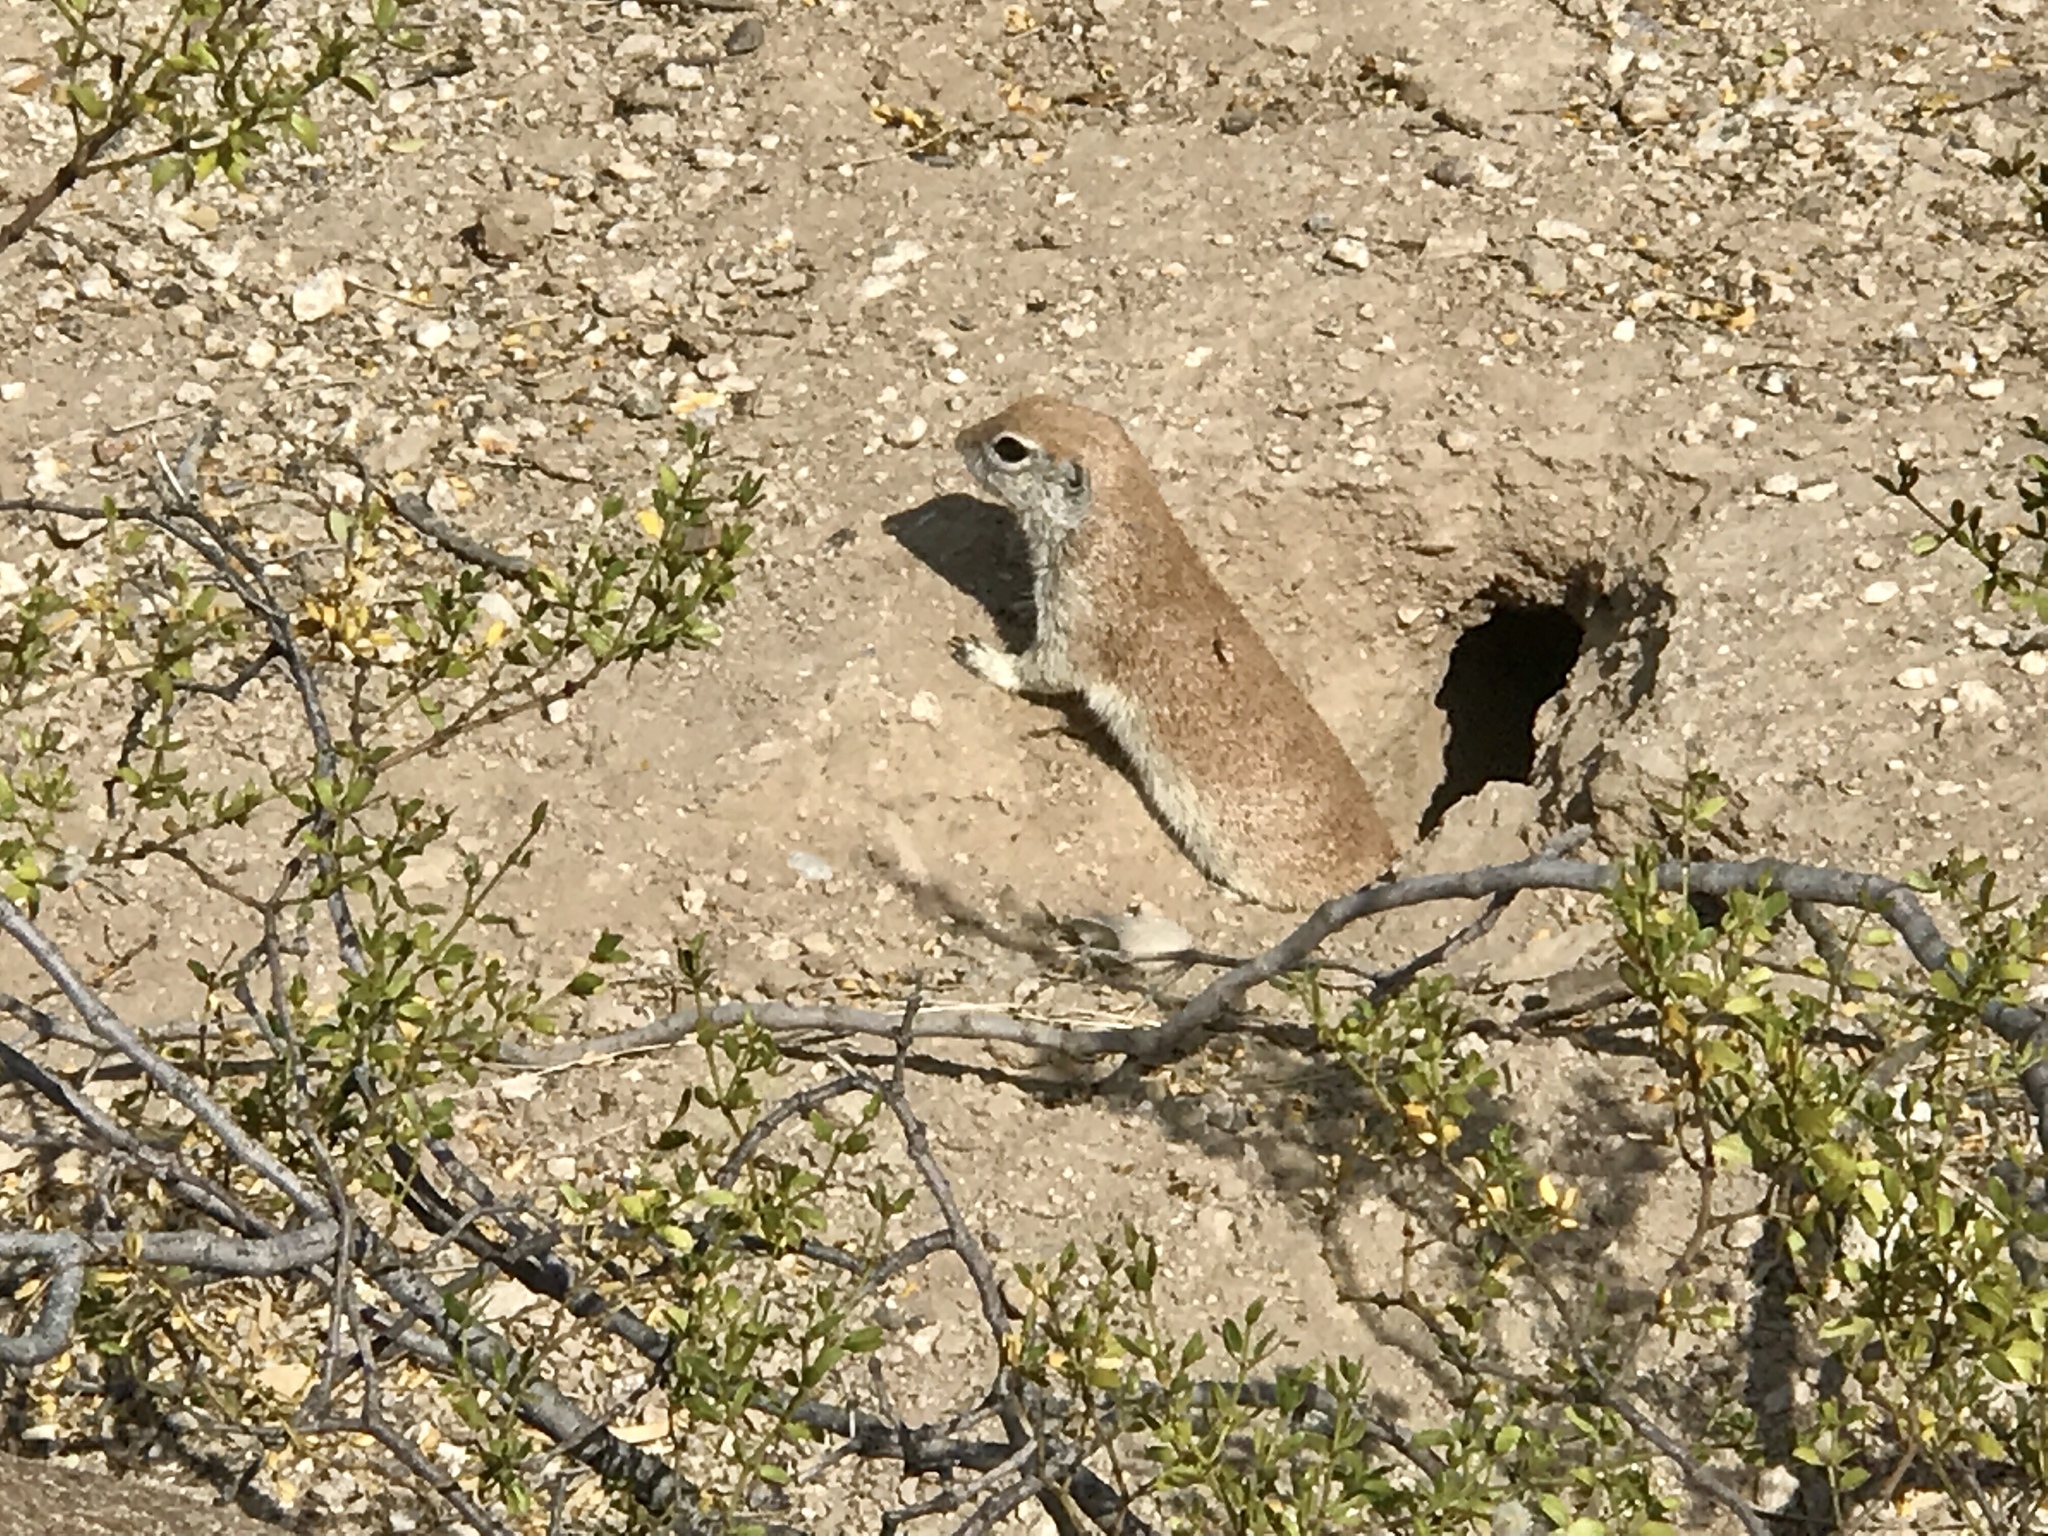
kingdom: Animalia
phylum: Chordata
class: Mammalia
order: Rodentia
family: Sciuridae
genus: Xerospermophilus
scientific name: Xerospermophilus tereticaudus
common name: Round-tailed ground squirrel
